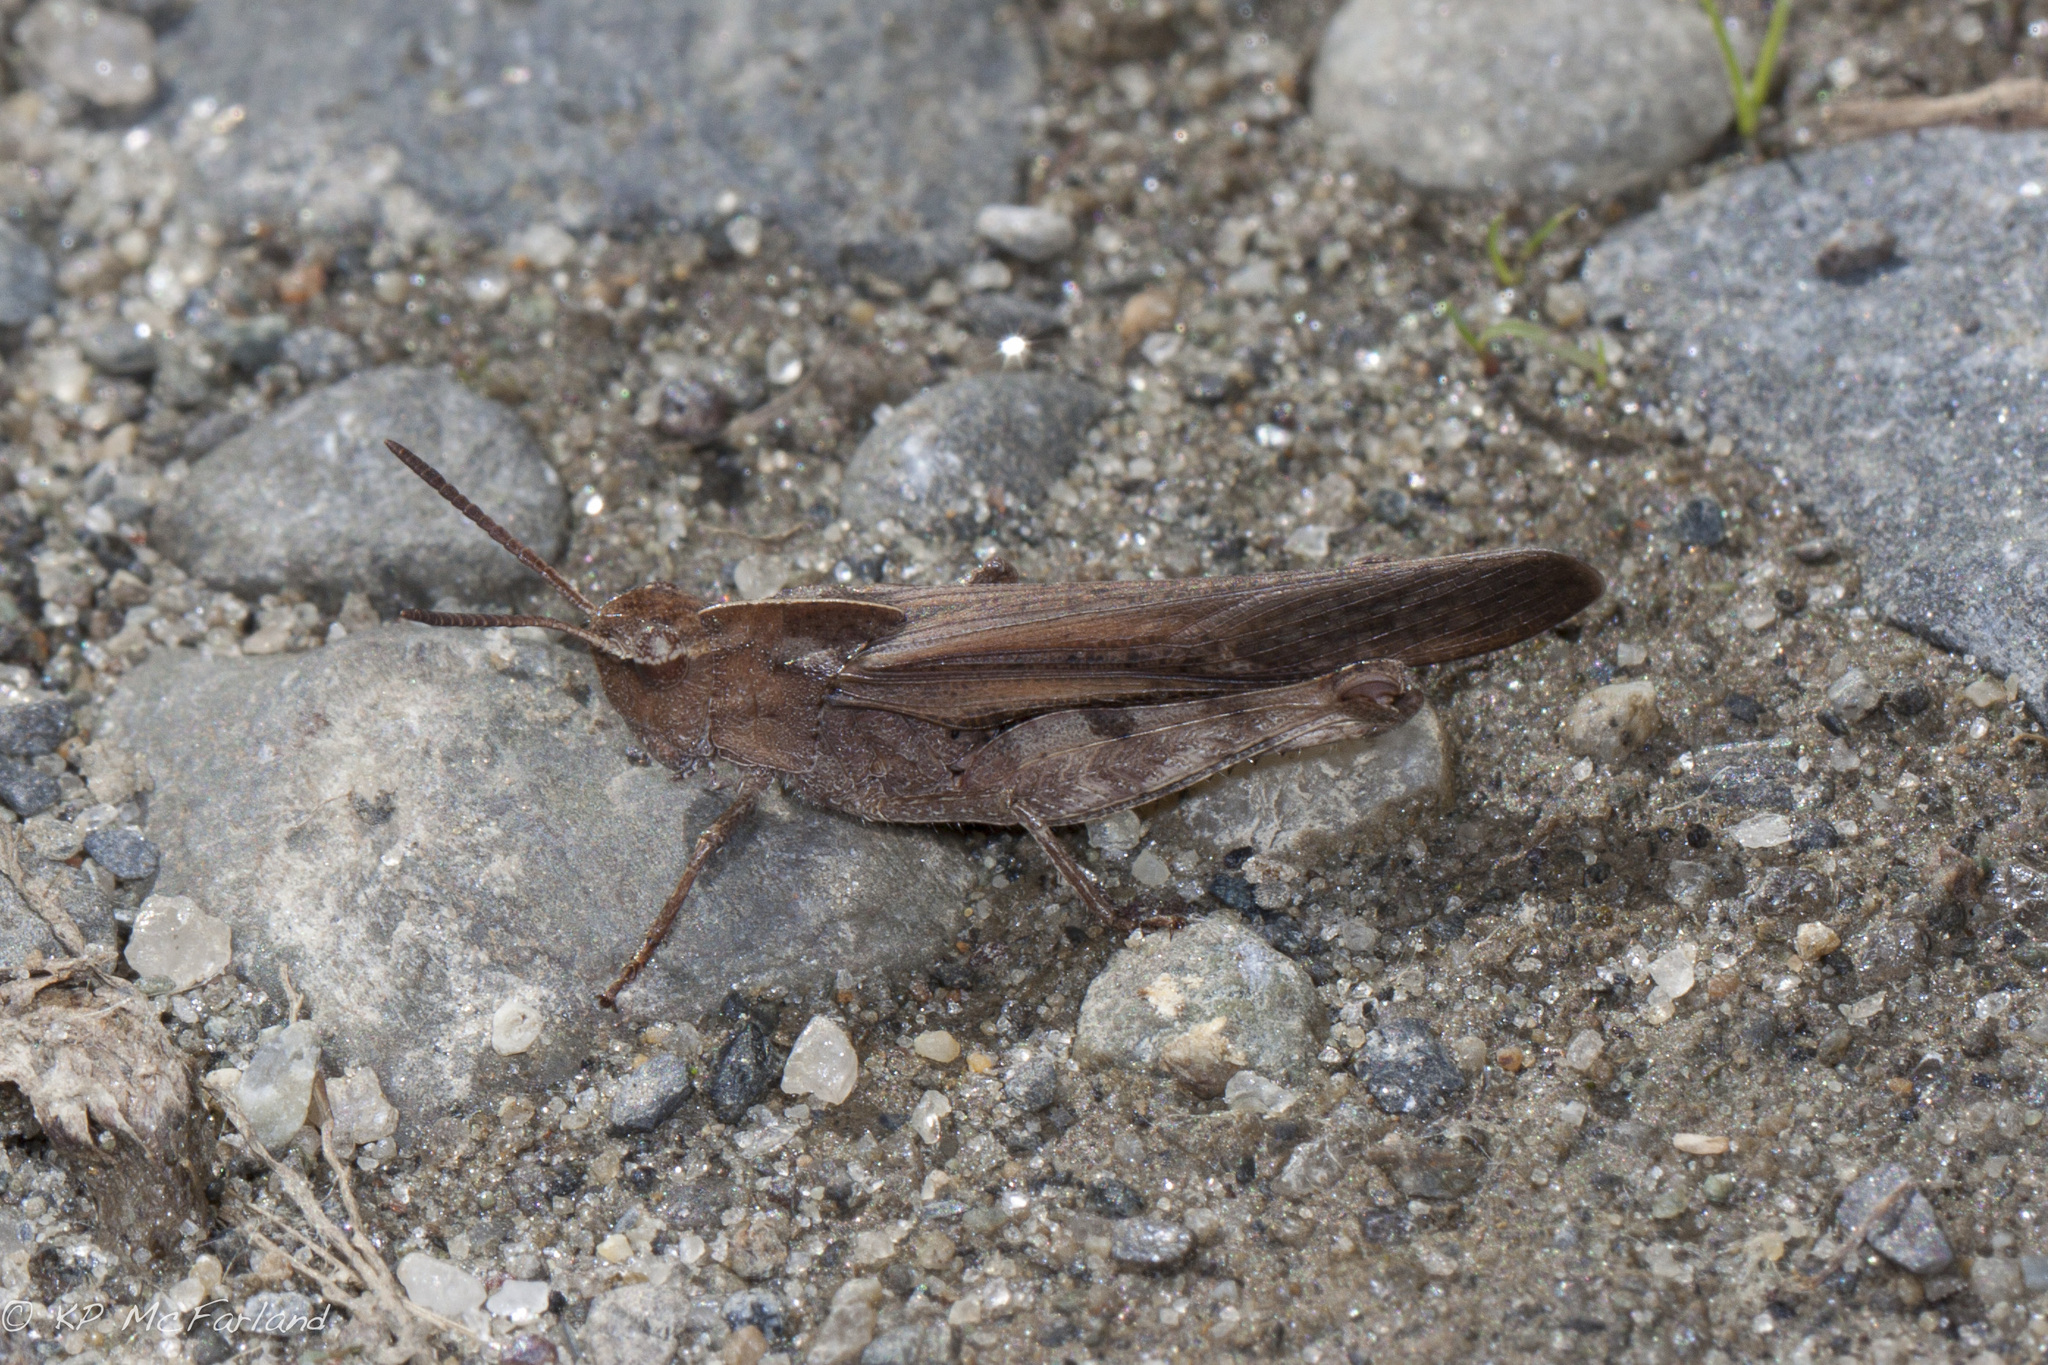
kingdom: Animalia
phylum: Arthropoda
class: Insecta
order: Orthoptera
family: Acrididae
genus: Chortophaga
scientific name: Chortophaga viridifasciata
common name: Green-striped grasshopper
